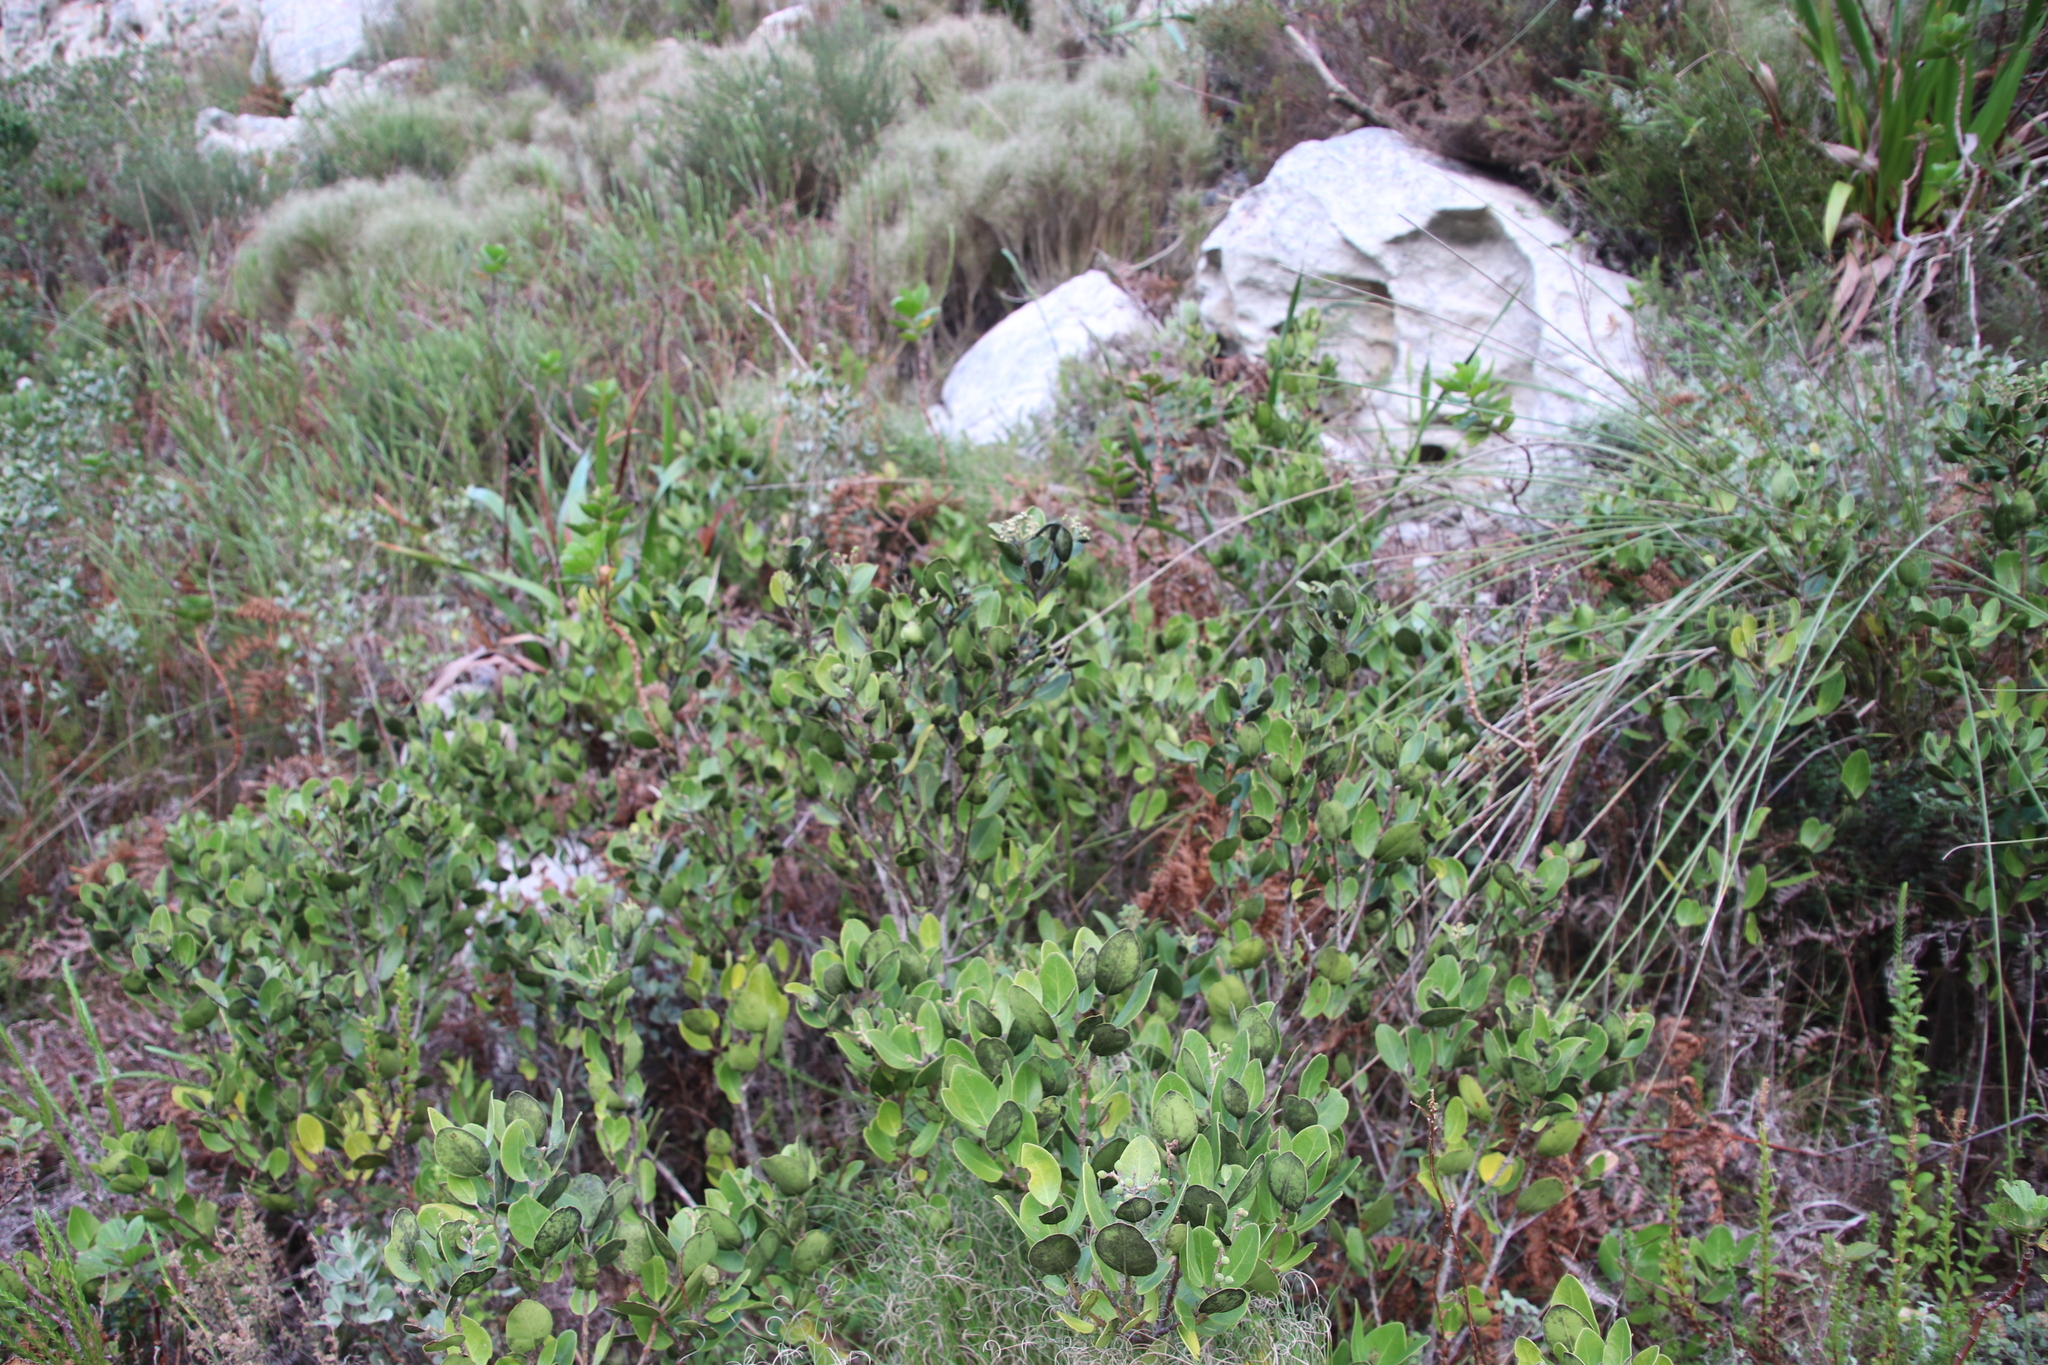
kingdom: Plantae
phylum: Tracheophyta
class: Magnoliopsida
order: Lamiales
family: Oleaceae
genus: Olea
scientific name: Olea capensis
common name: Black ironwood
